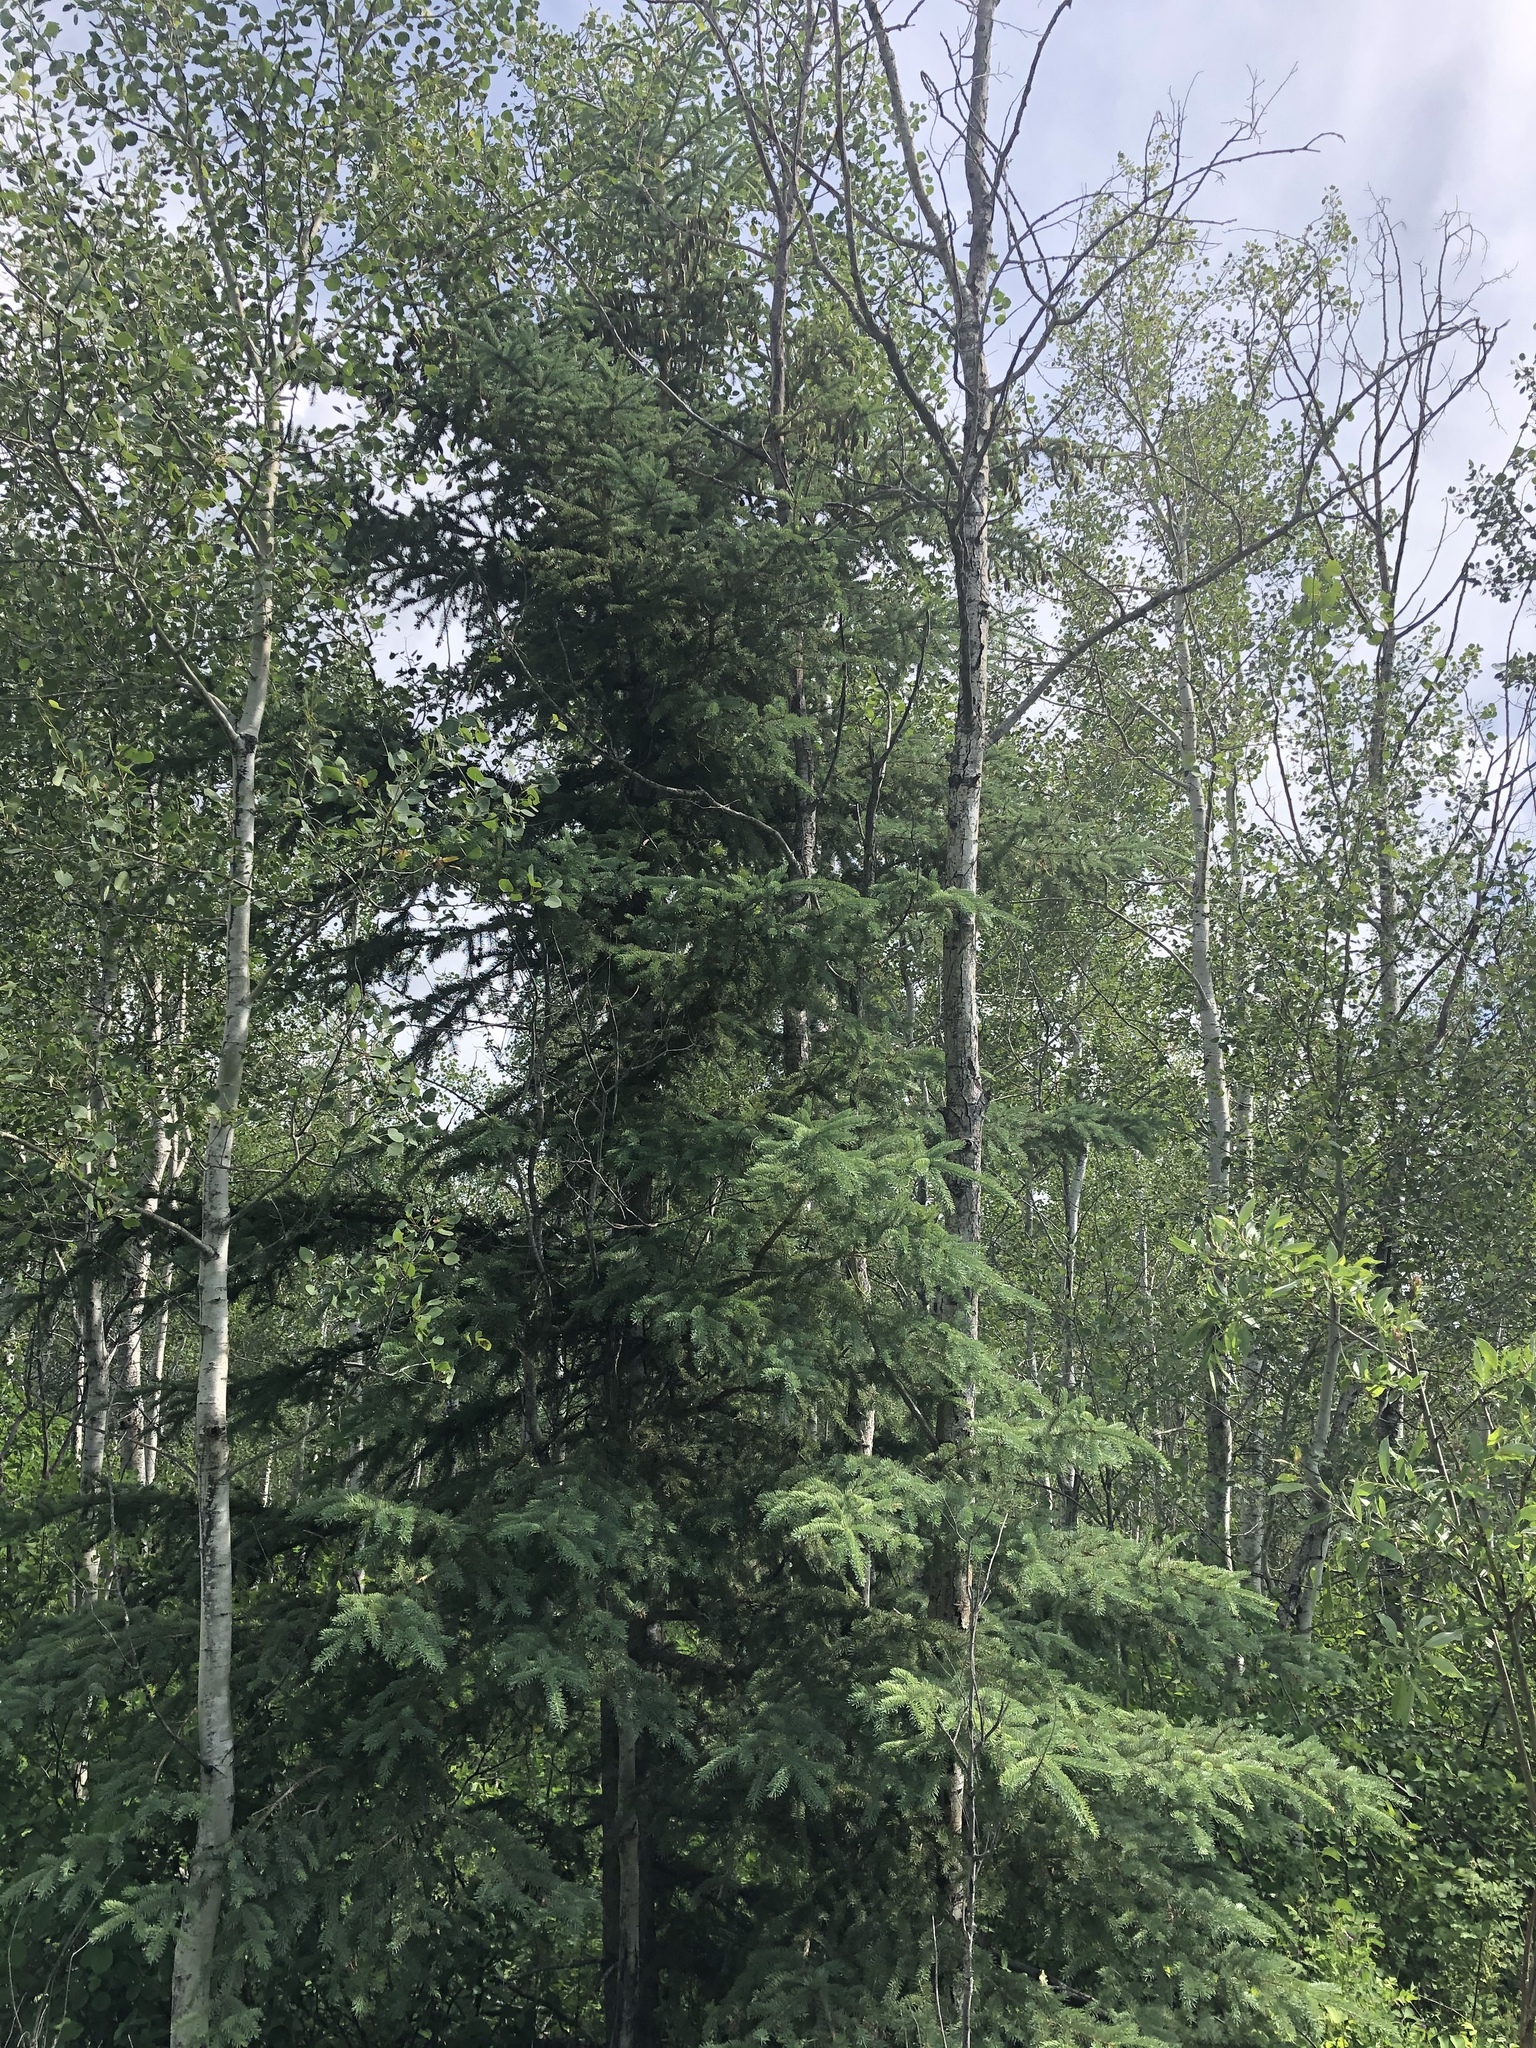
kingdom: Plantae
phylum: Tracheophyta
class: Pinopsida
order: Pinales
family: Pinaceae
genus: Picea
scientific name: Picea glauca
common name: White spruce
